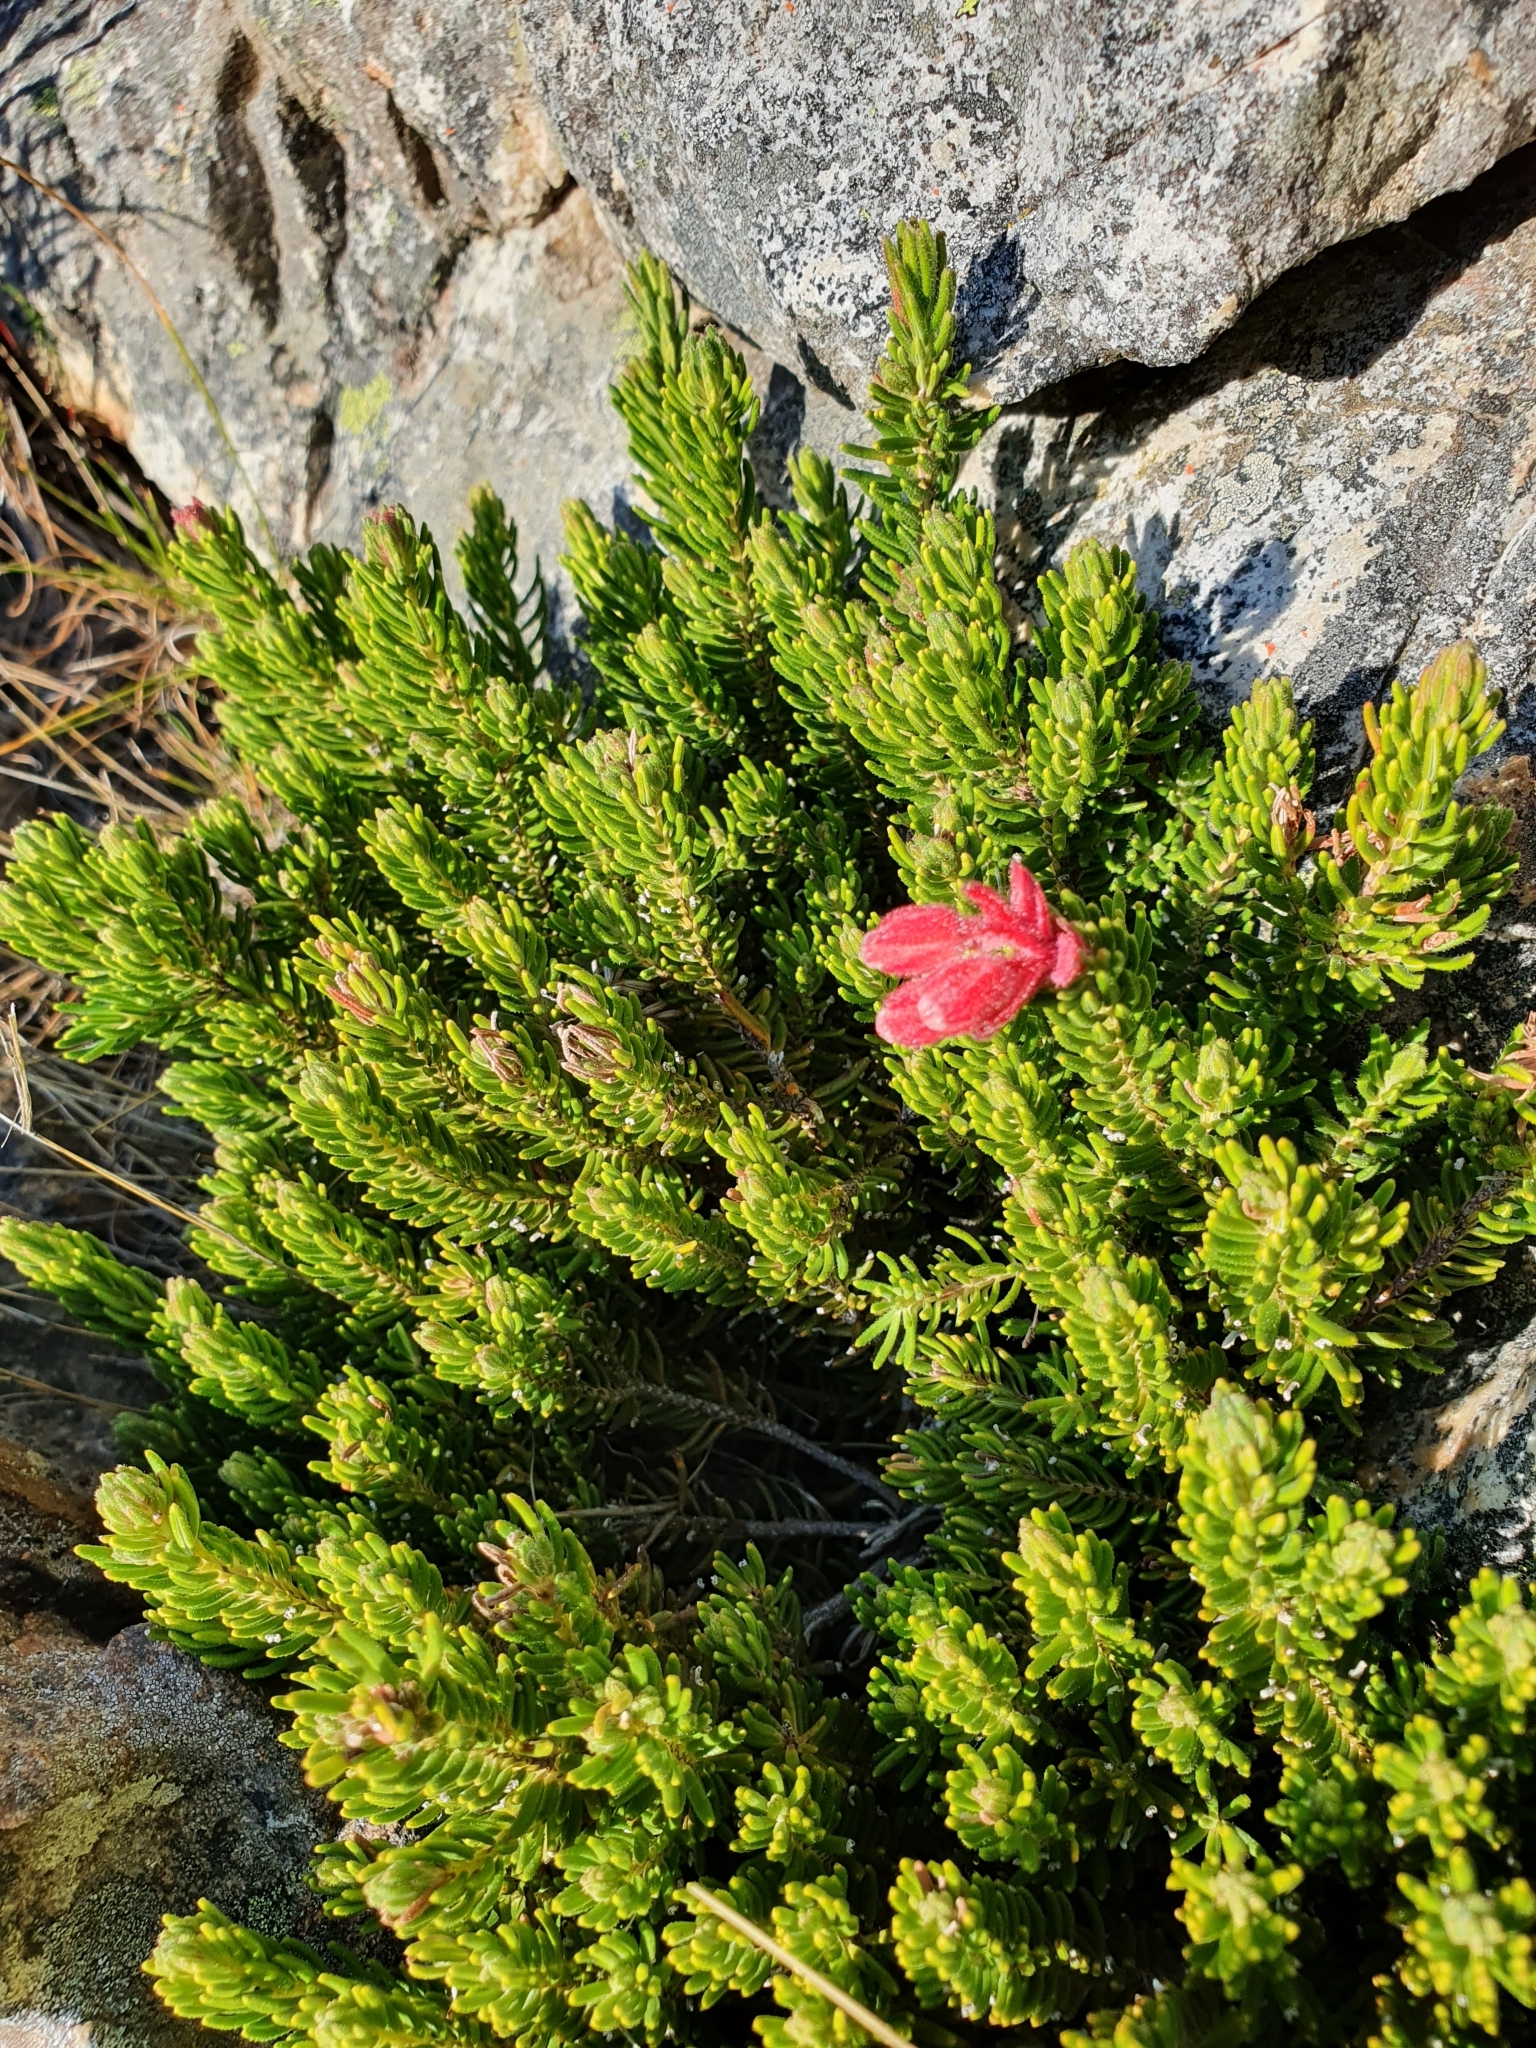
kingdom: Plantae
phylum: Tracheophyta
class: Magnoliopsida
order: Ericales
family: Ericaceae
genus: Erica
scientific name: Erica cameronii
